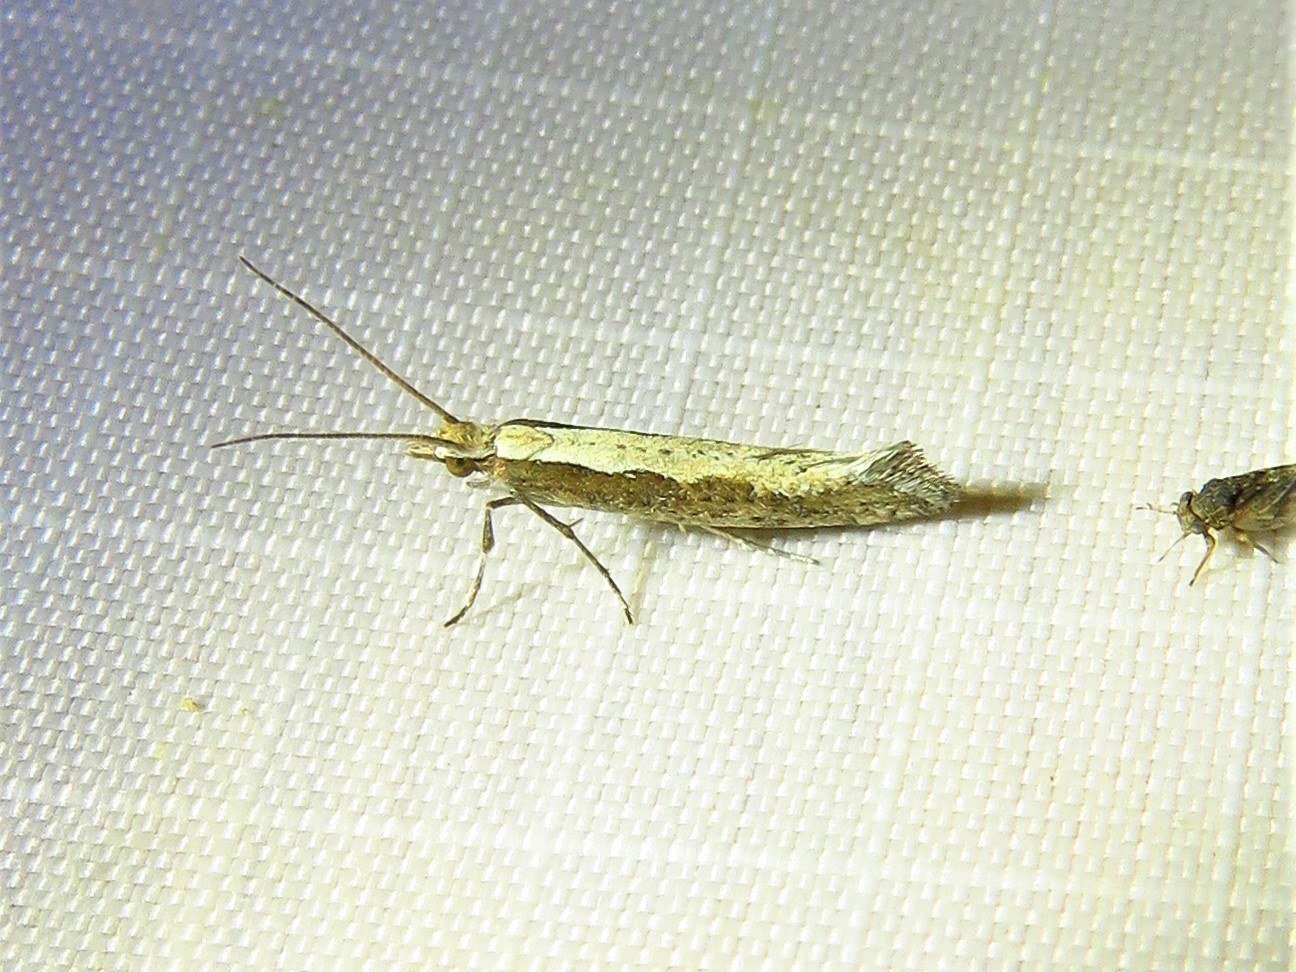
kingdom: Animalia
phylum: Arthropoda
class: Insecta
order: Lepidoptera
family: Plutellidae
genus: Plutella
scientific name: Plutella xylostella
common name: Diamond-back moth
